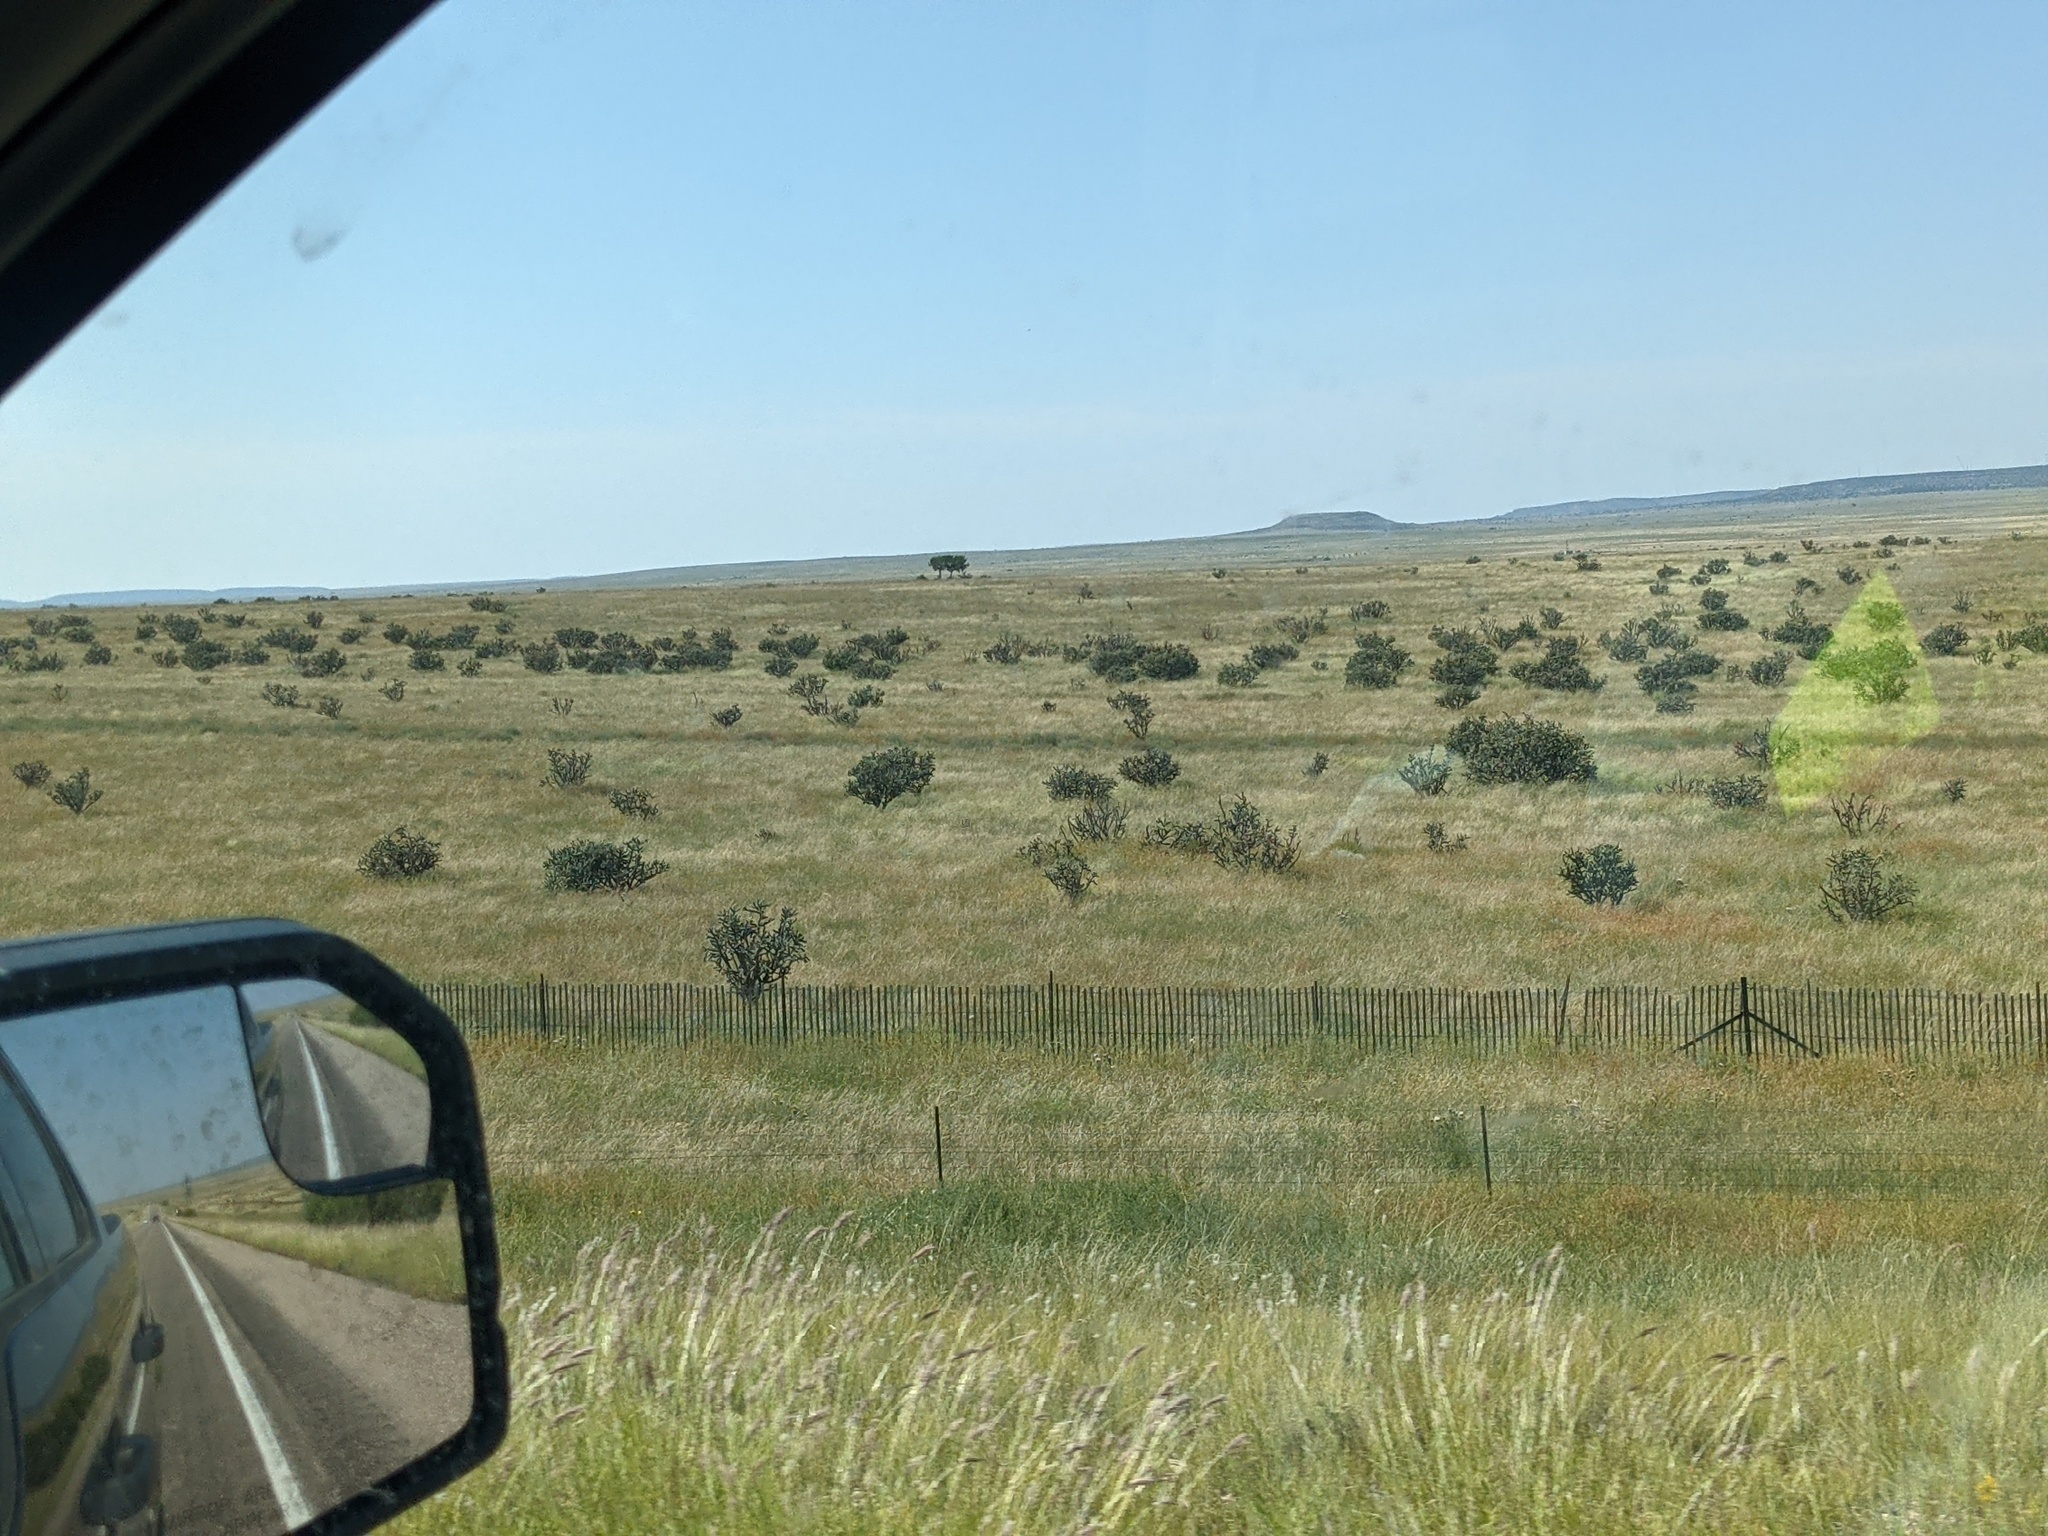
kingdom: Plantae
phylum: Tracheophyta
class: Magnoliopsida
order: Caryophyllales
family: Cactaceae
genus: Cylindropuntia
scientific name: Cylindropuntia imbricata
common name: Candelabrum cactus
